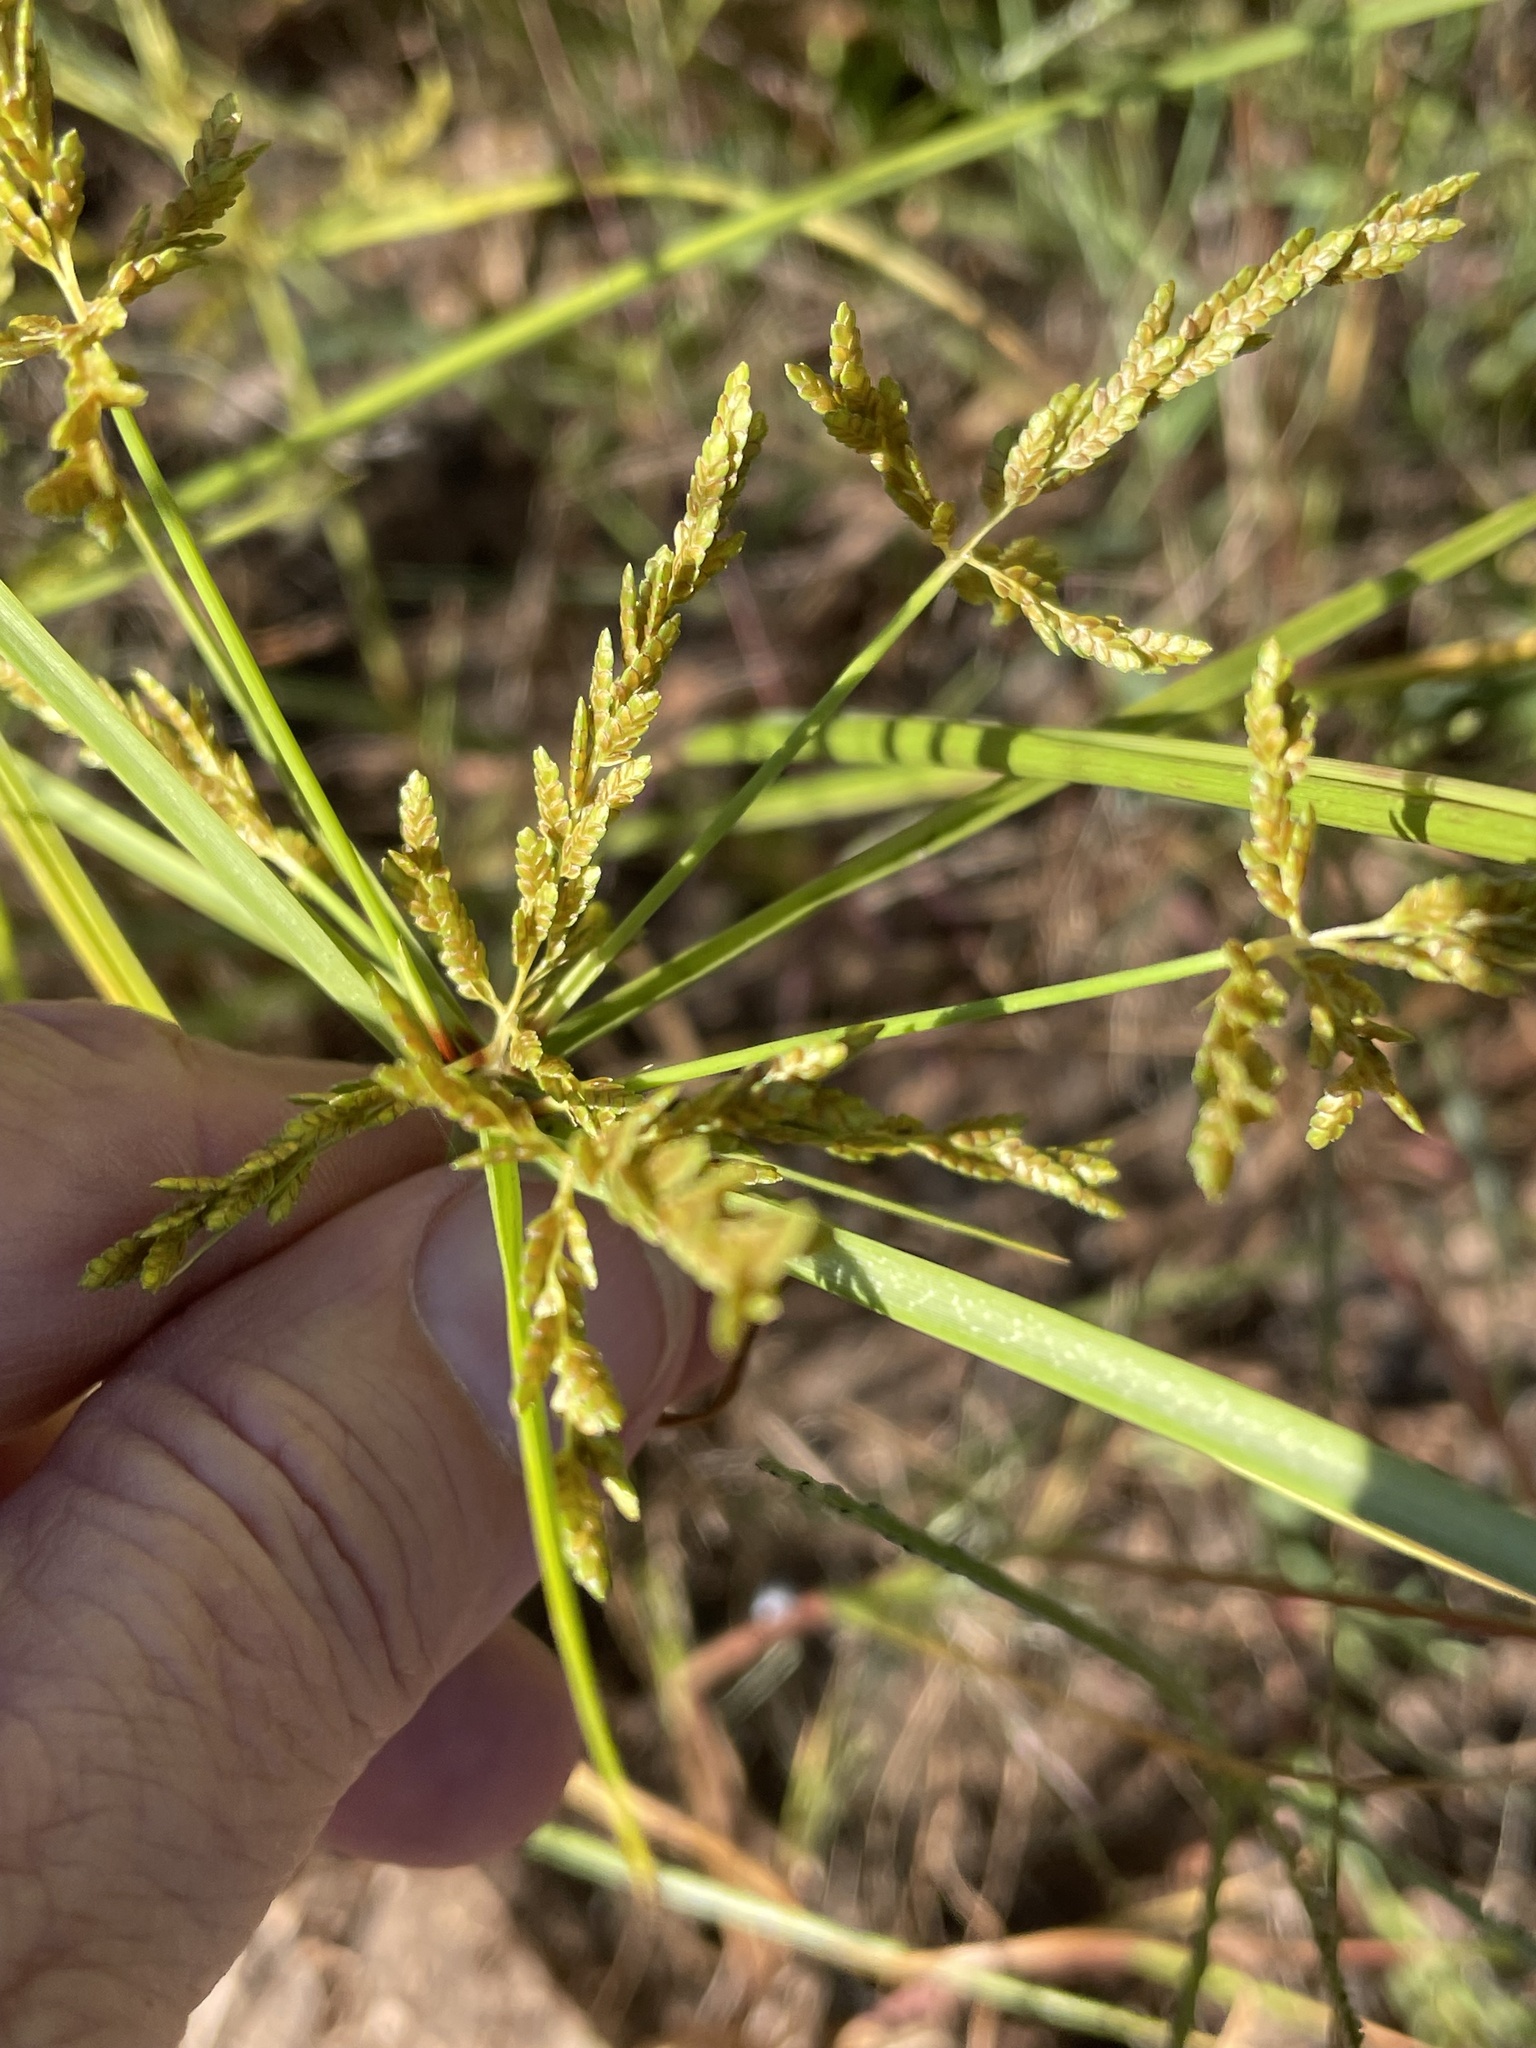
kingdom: Plantae
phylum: Tracheophyta
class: Liliopsida
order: Poales
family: Cyperaceae
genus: Cyperus
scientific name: Cyperus iria
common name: Ricefield flatsedge
